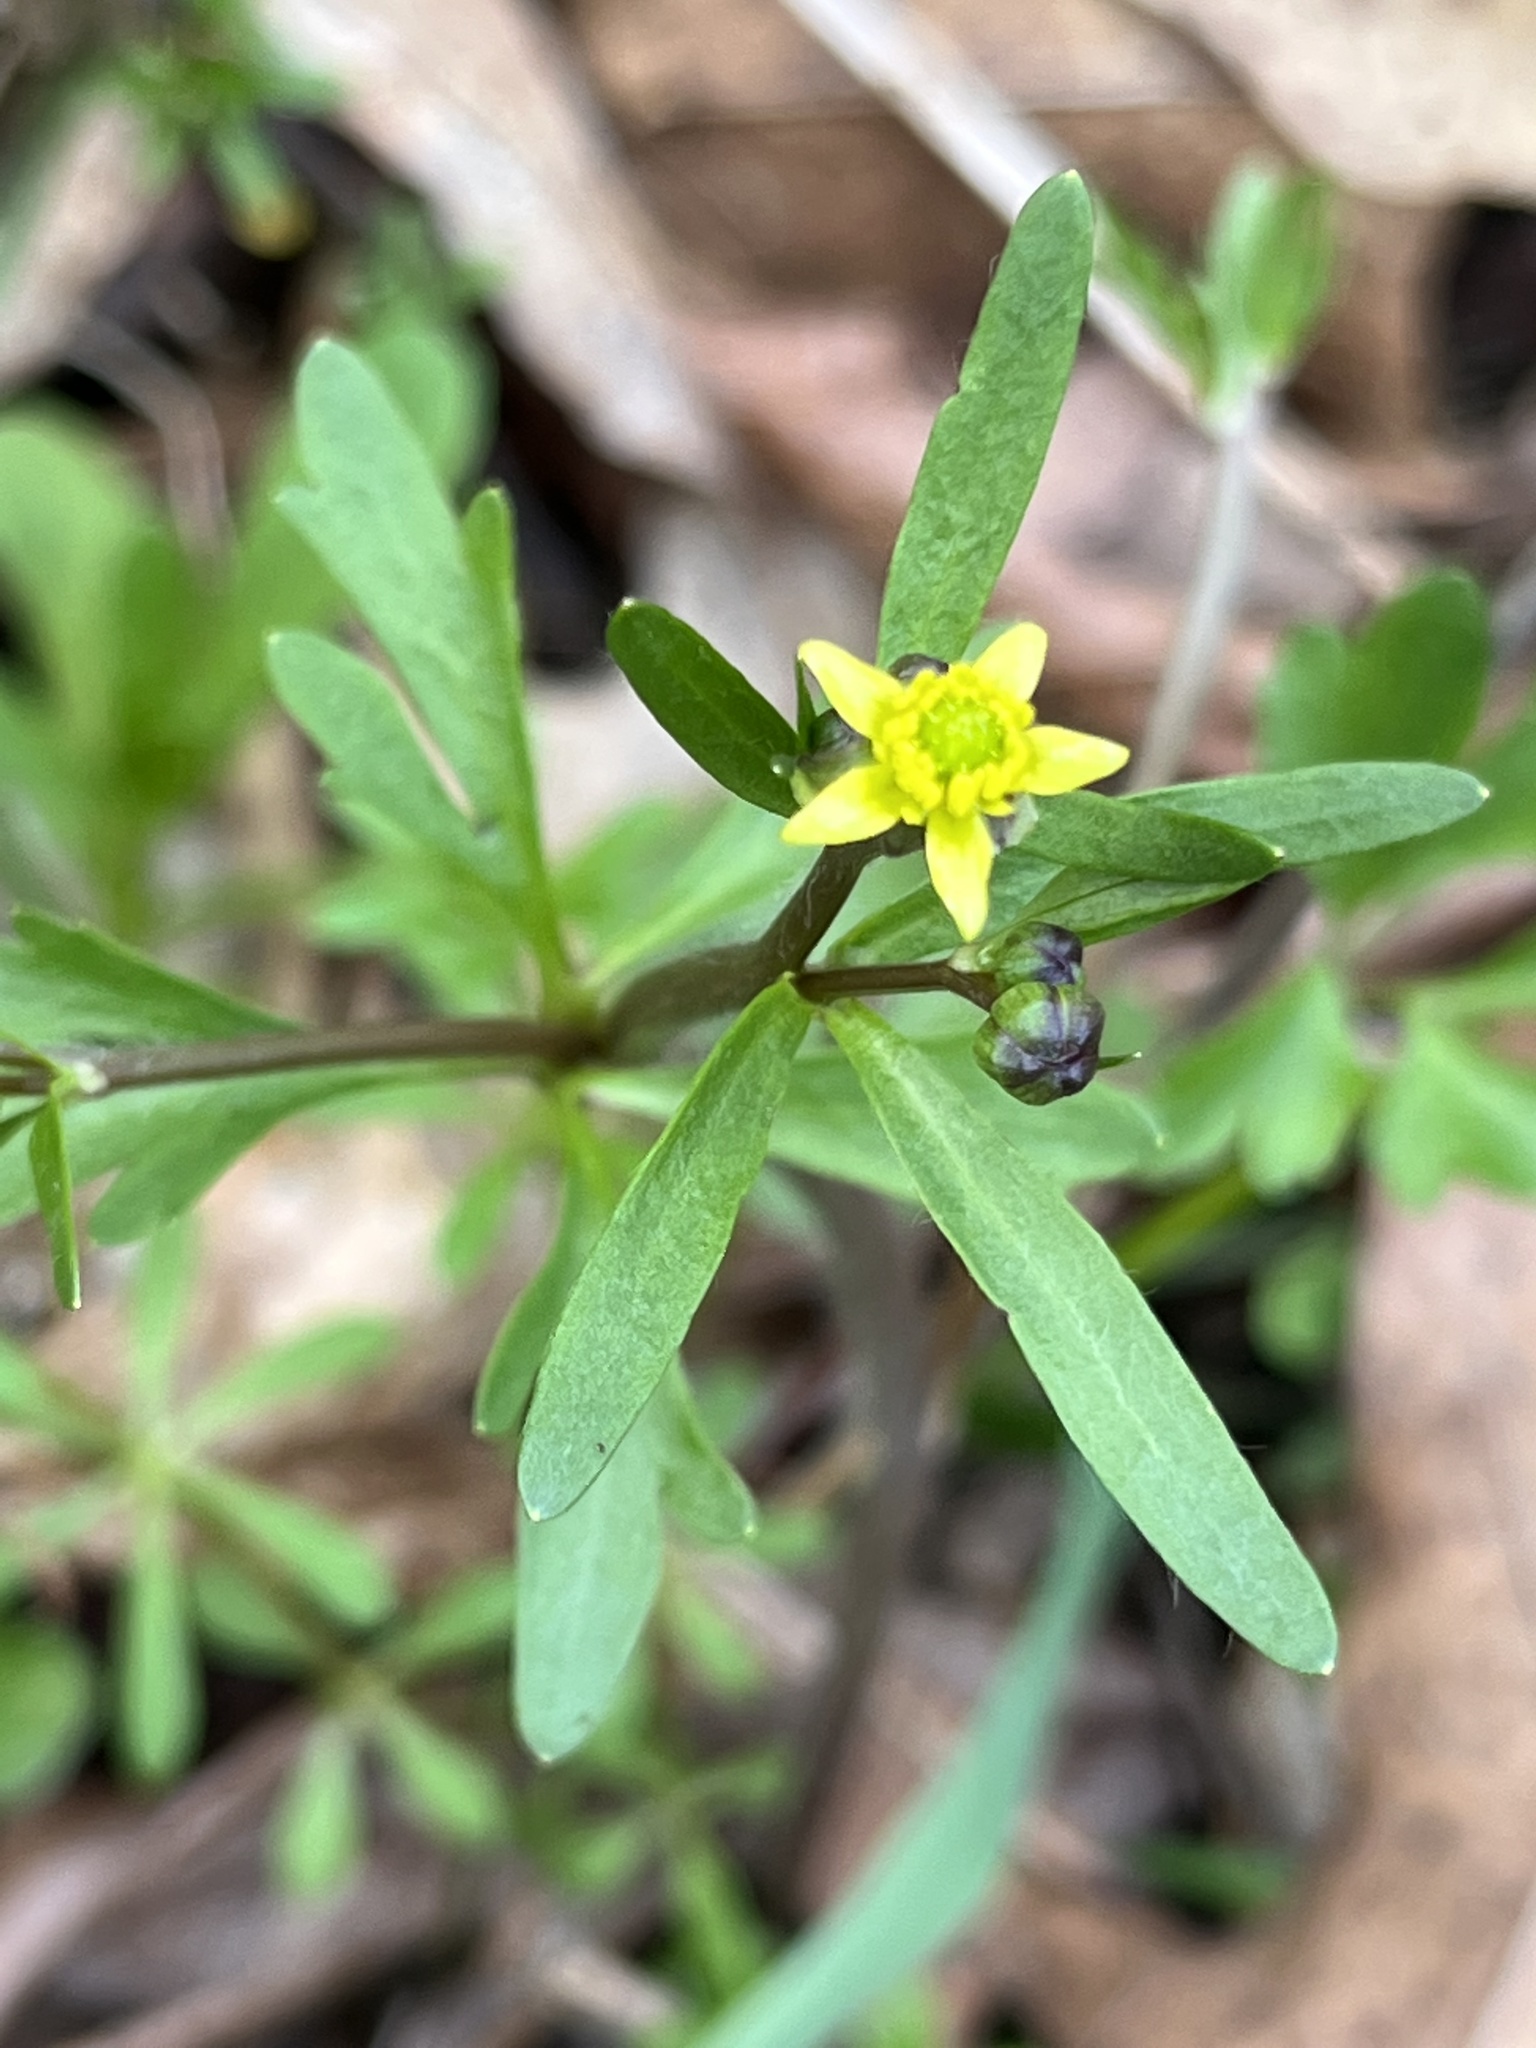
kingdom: Plantae
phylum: Tracheophyta
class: Magnoliopsida
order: Ranunculales
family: Ranunculaceae
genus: Ranunculus
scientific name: Ranunculus abortivus
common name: Early wood buttercup
